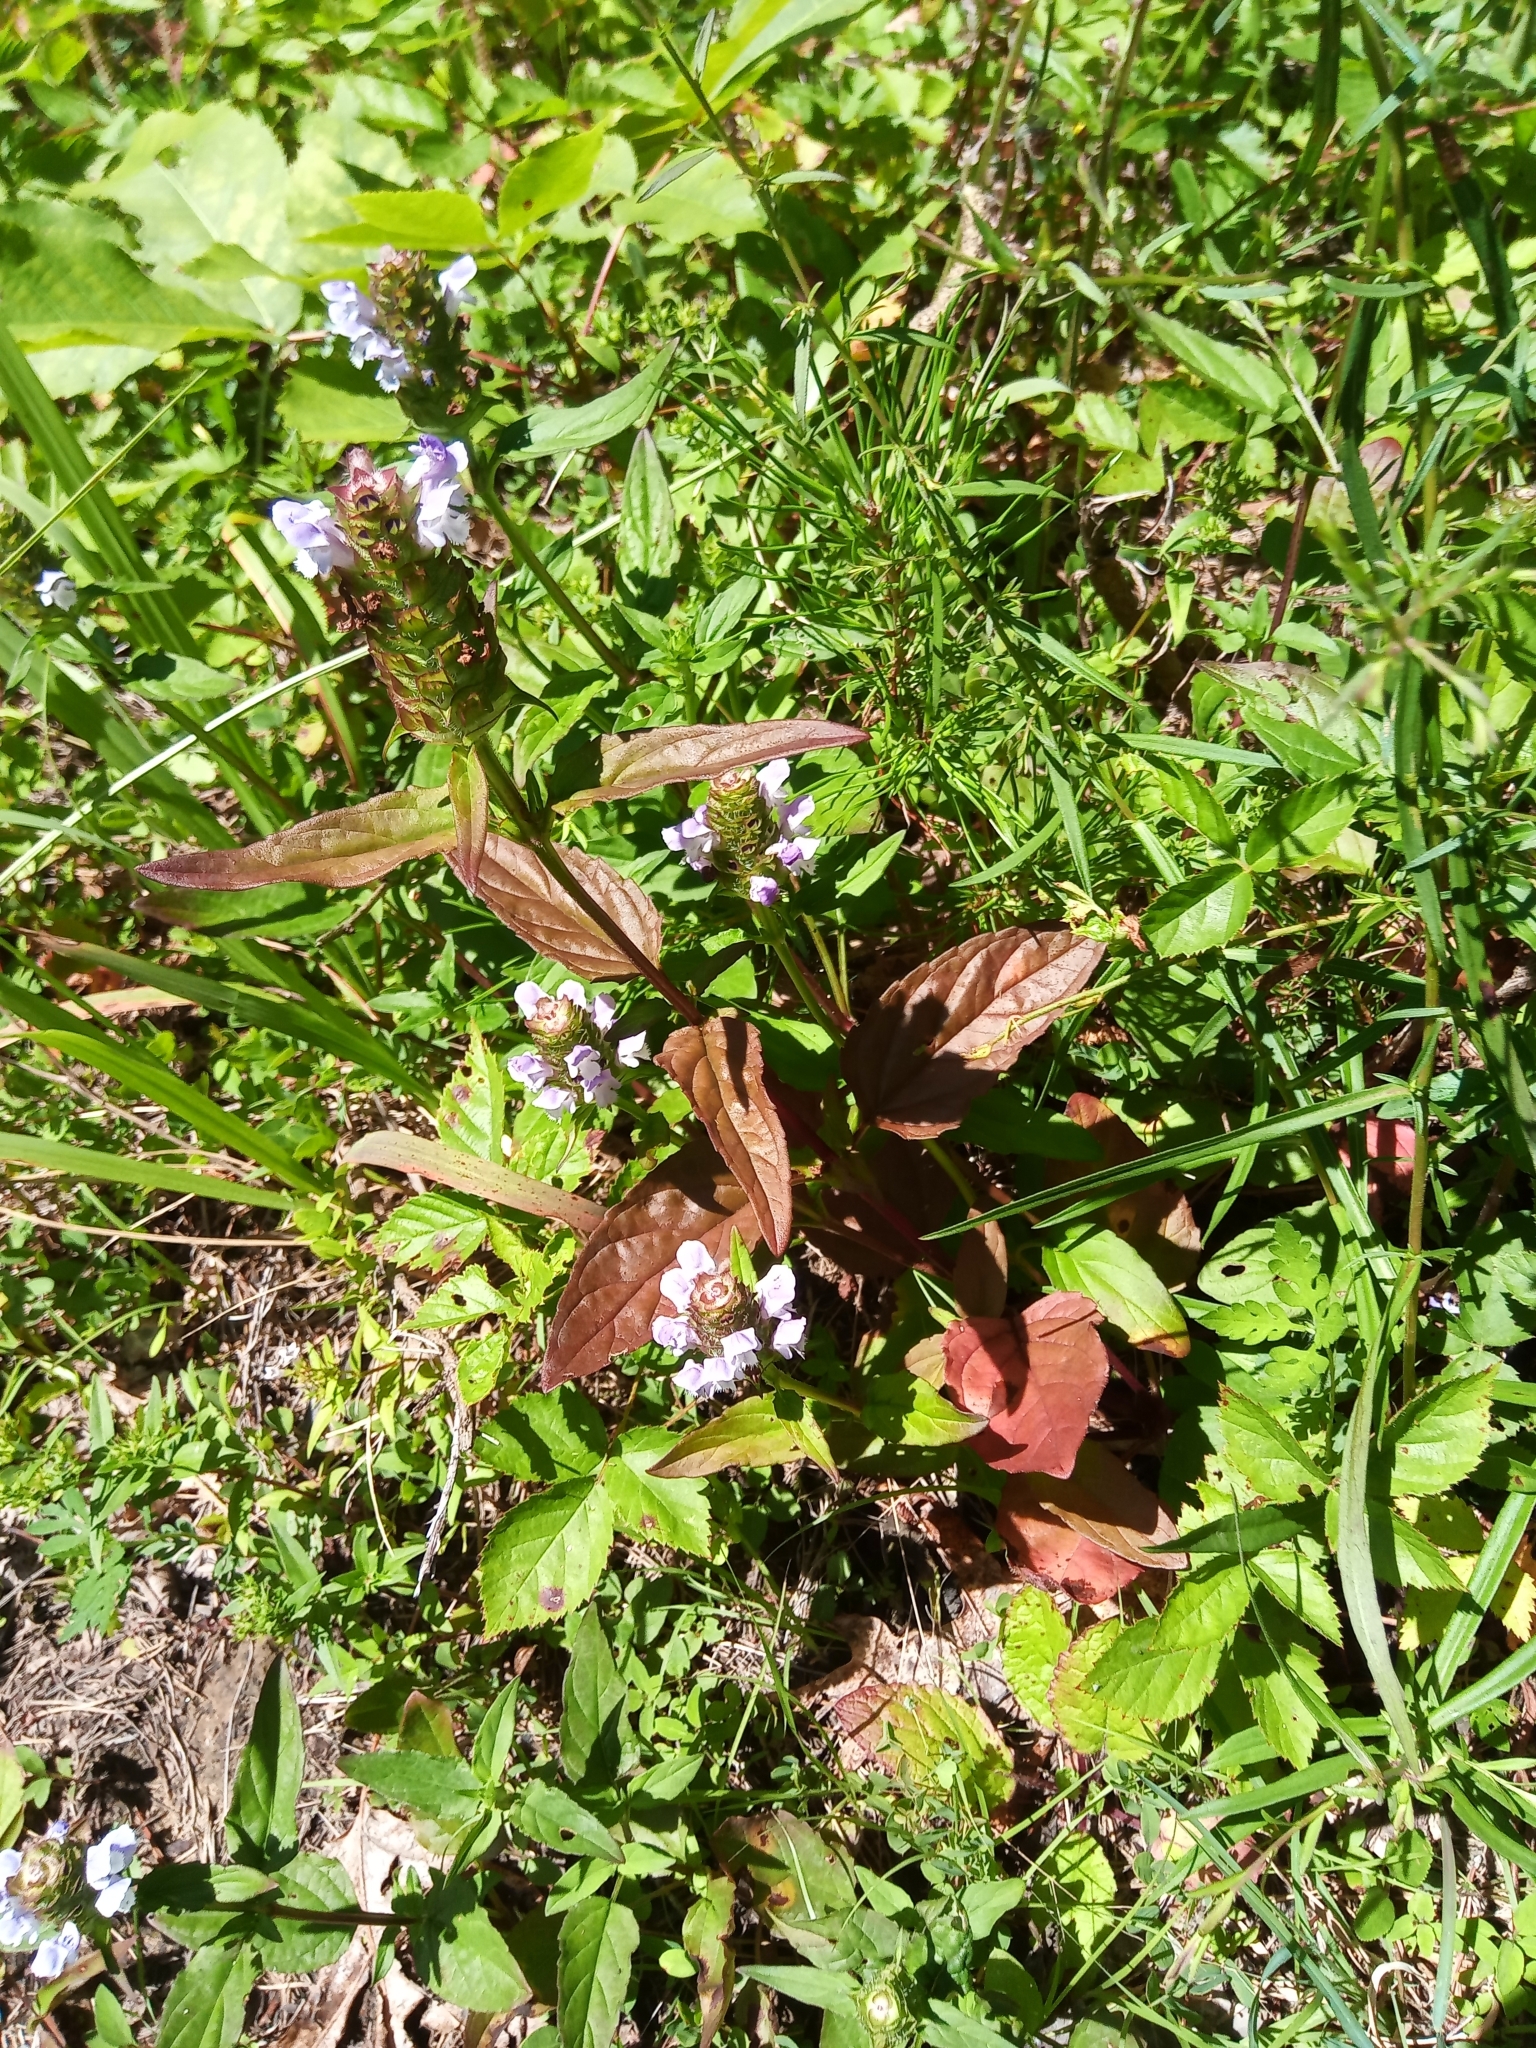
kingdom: Plantae
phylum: Tracheophyta
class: Magnoliopsida
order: Lamiales
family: Lamiaceae
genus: Prunella
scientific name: Prunella vulgaris
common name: Heal-all
